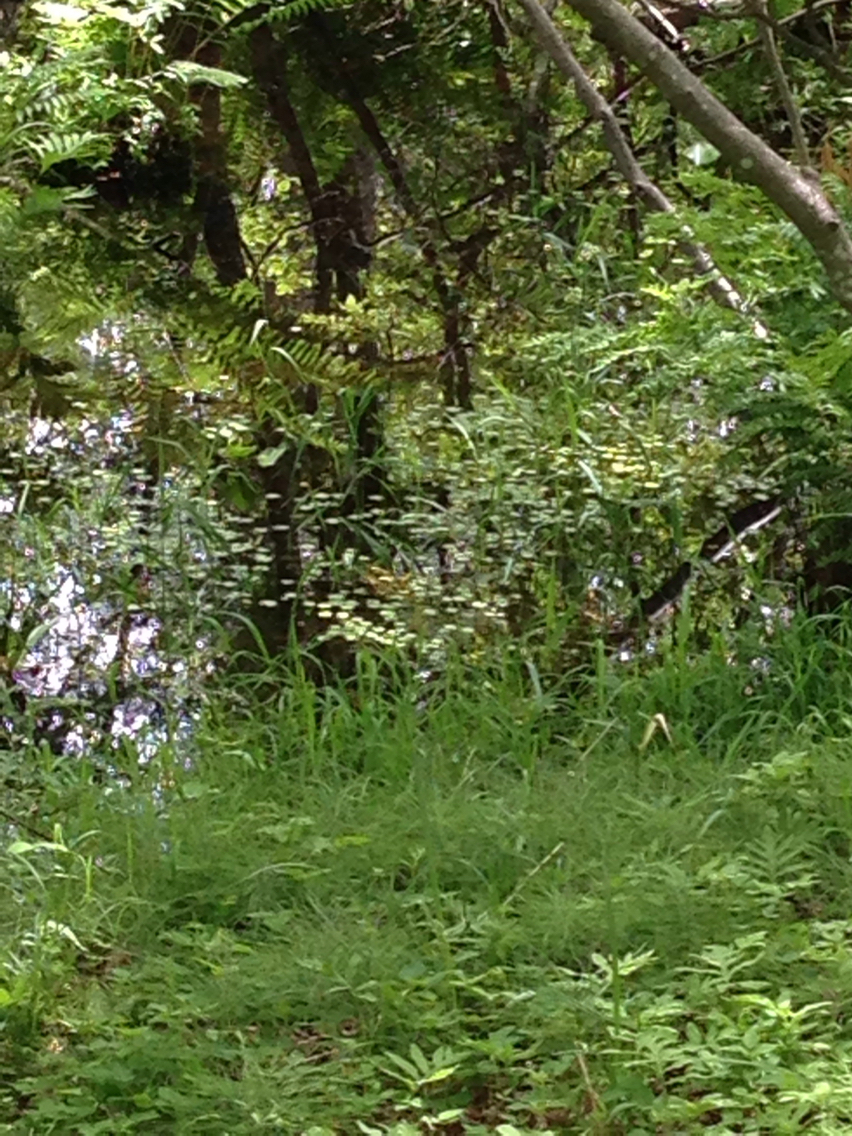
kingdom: Plantae
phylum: Tracheophyta
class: Liliopsida
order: Alismatales
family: Hydrocharitaceae
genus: Hydrocharis
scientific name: Hydrocharis morsus-ranae
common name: Frogbit
